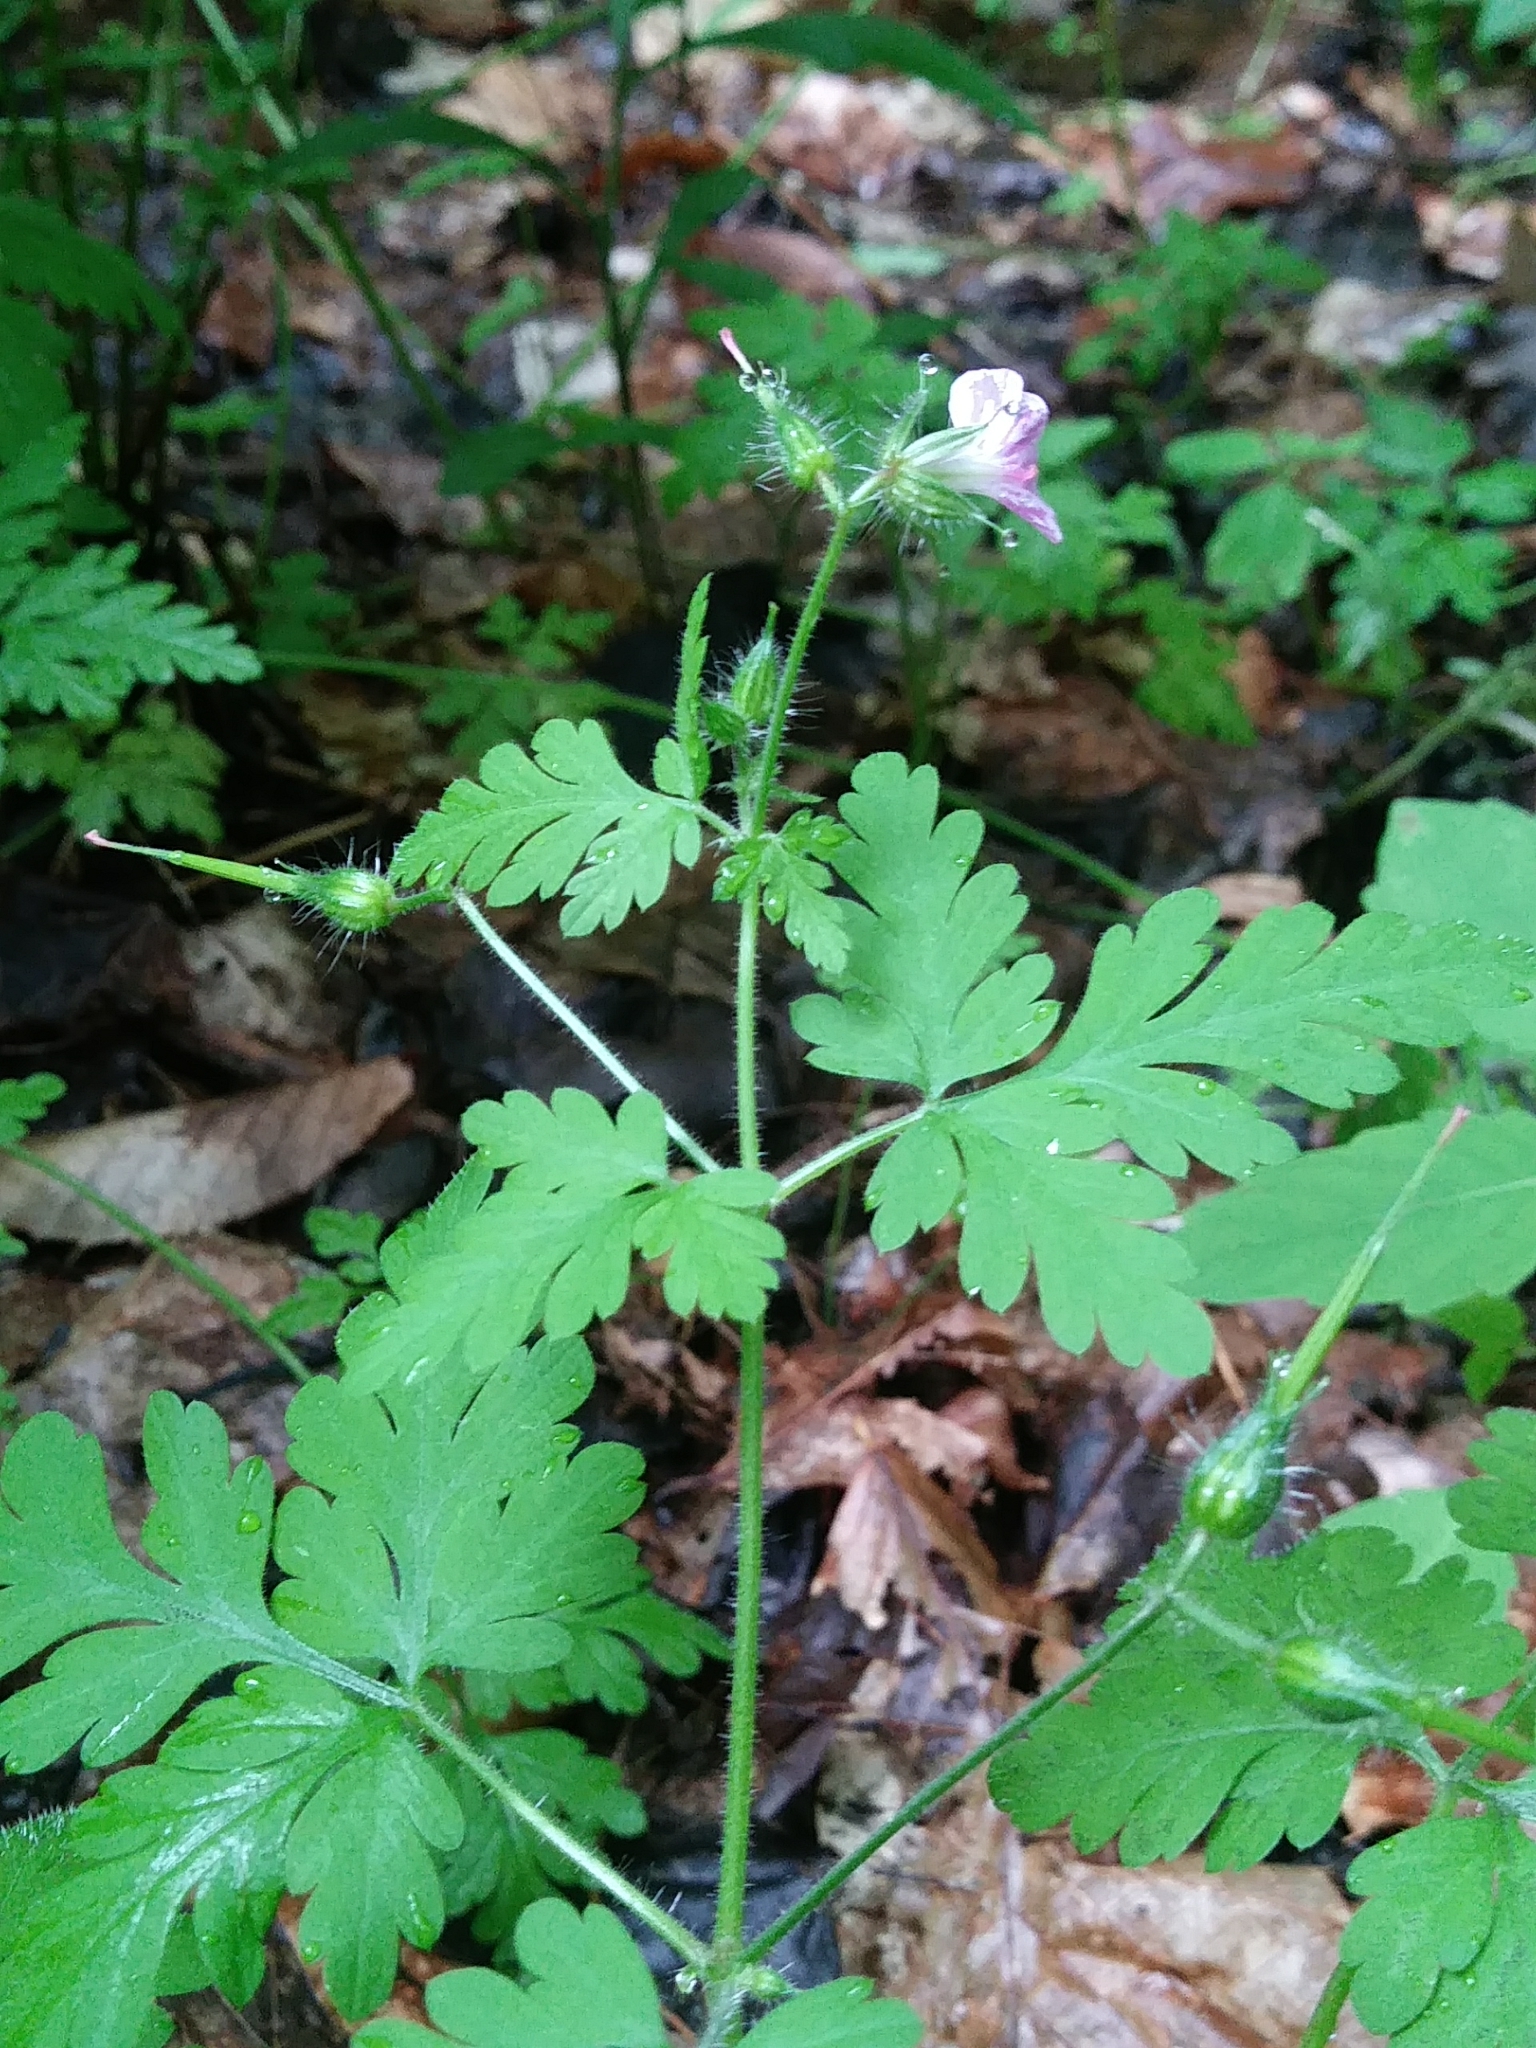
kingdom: Plantae
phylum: Tracheophyta
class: Magnoliopsida
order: Geraniales
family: Geraniaceae
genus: Geranium
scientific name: Geranium robertianum
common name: Herb-robert
